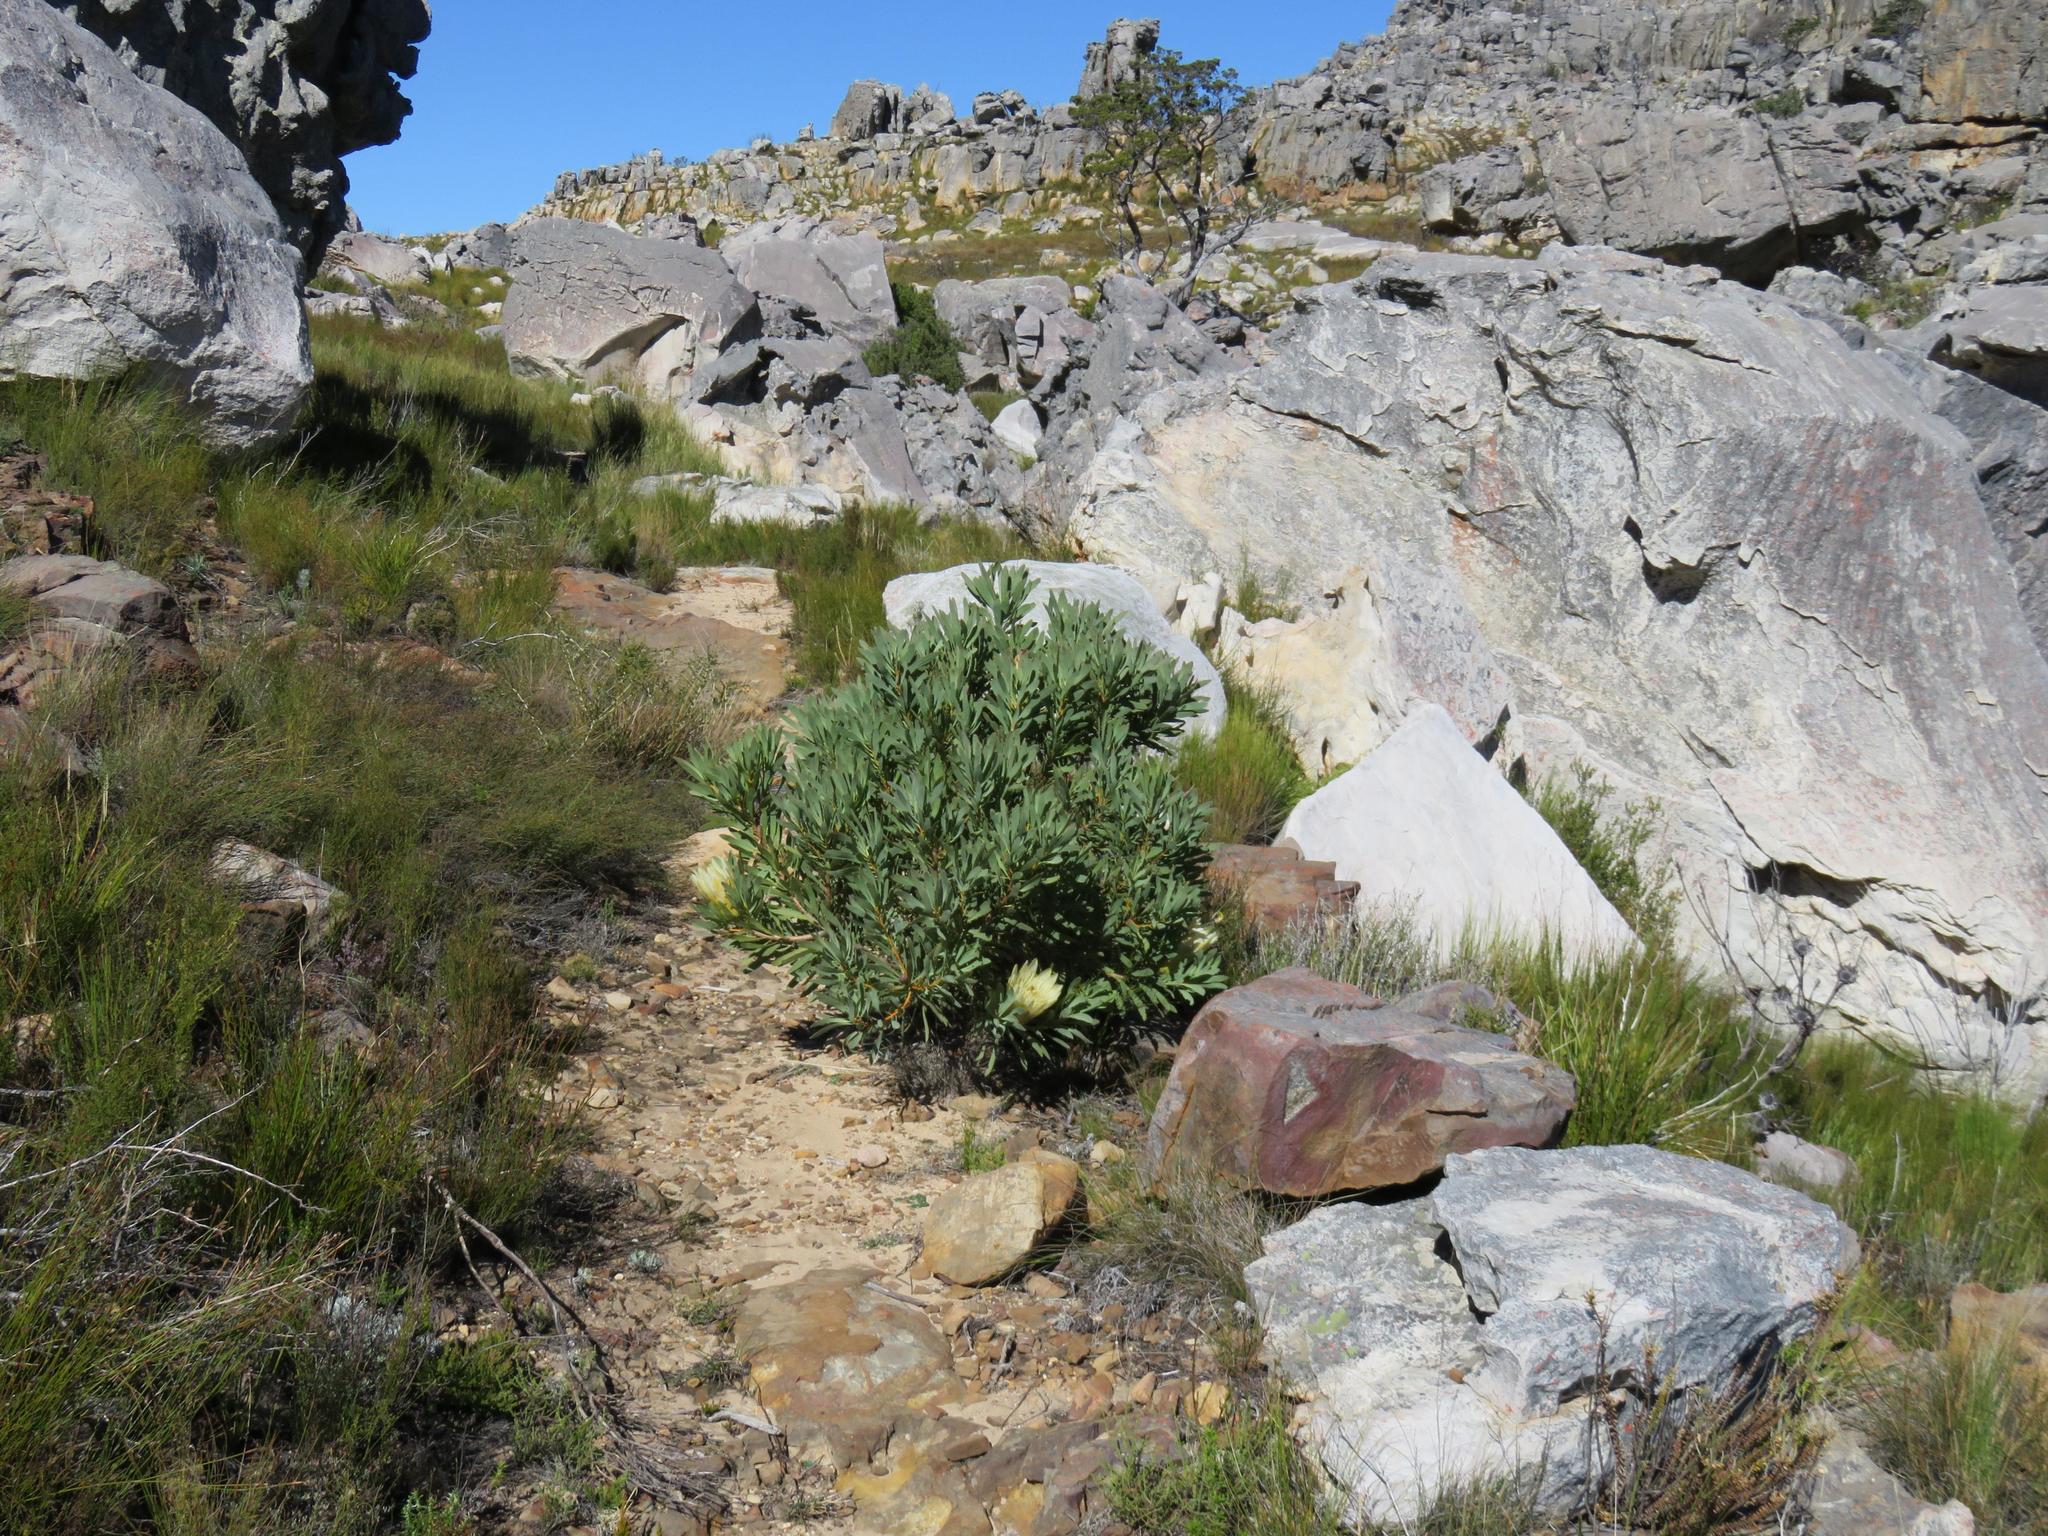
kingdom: Plantae
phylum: Tracheophyta
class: Magnoliopsida
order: Proteales
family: Proteaceae
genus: Protea
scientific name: Protea repens
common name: Sugarbush
